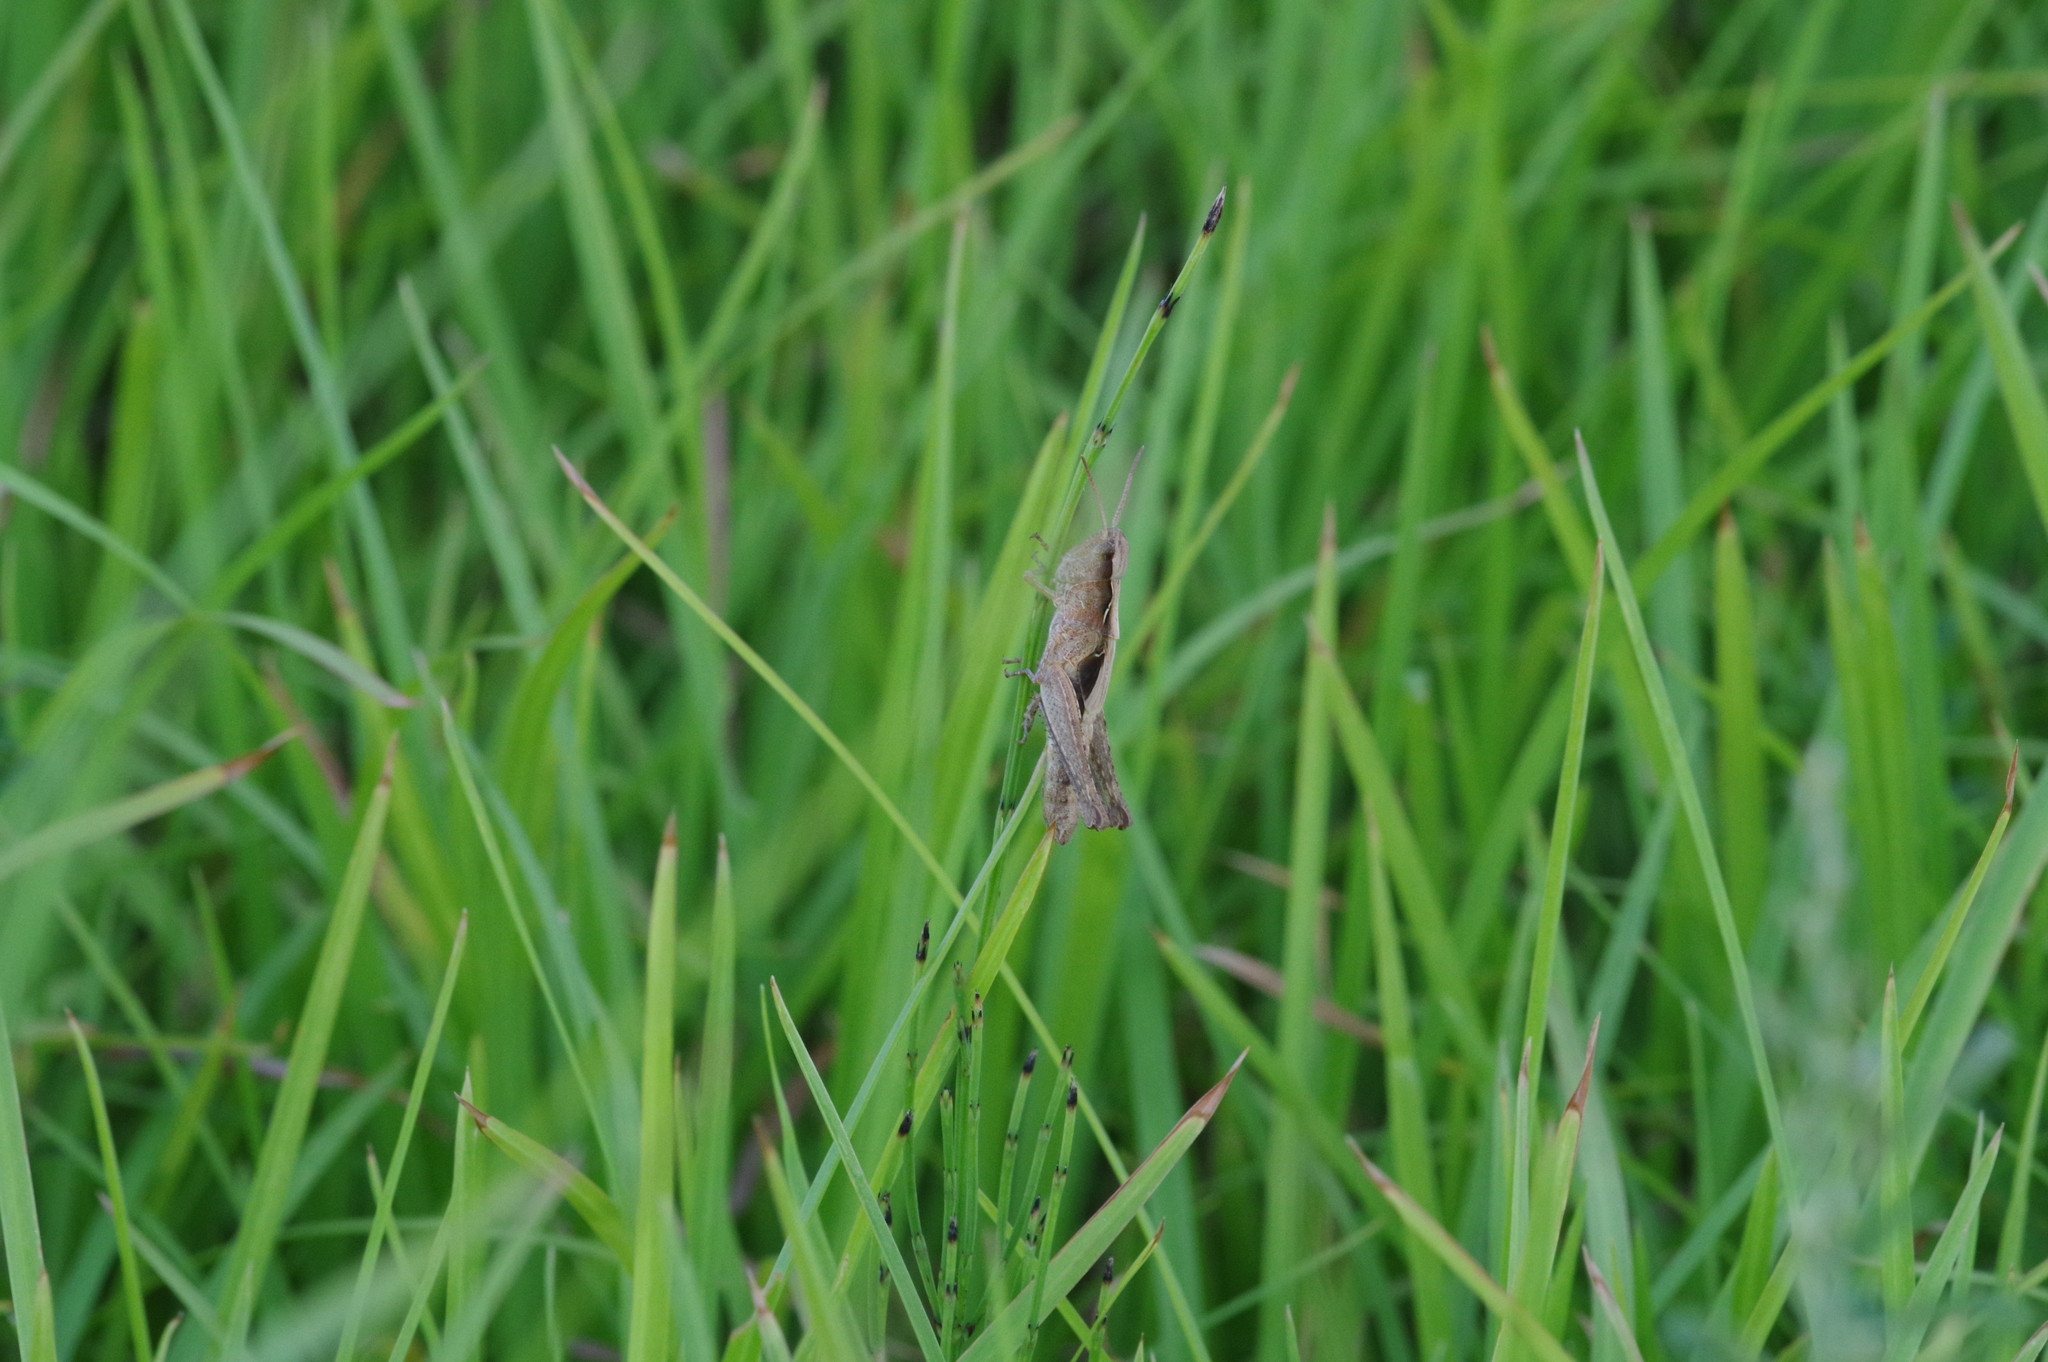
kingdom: Animalia
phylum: Arthropoda
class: Insecta
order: Orthoptera
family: Acrididae
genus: Chorthippus
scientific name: Chorthippus maritimus
